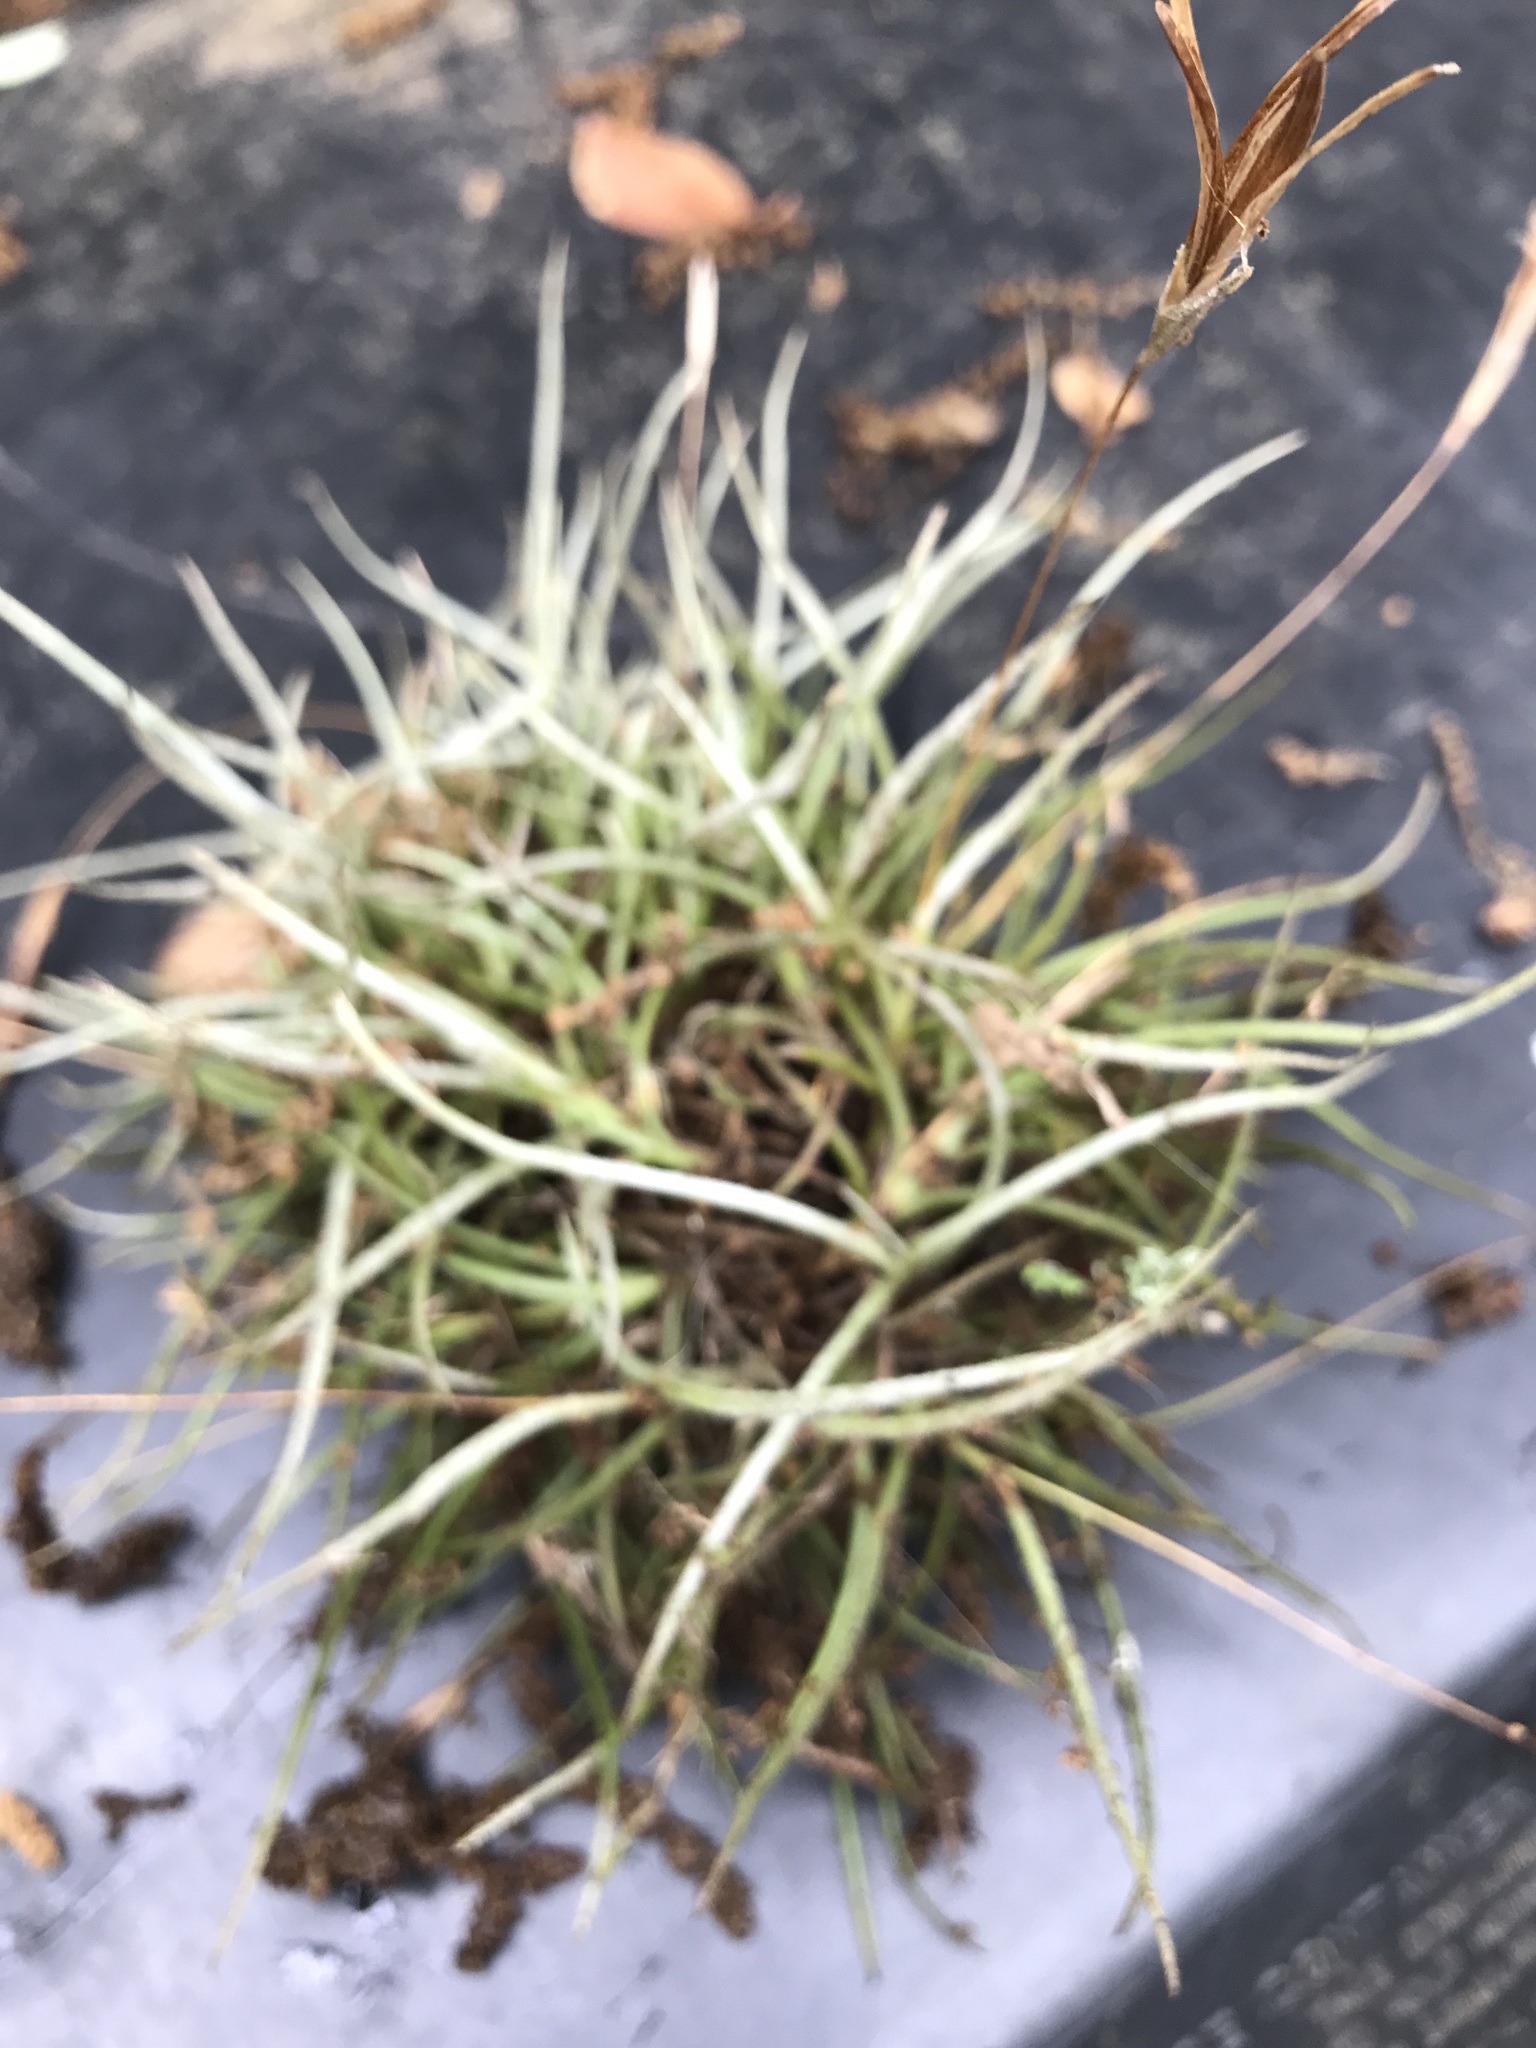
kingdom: Plantae
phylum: Tracheophyta
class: Liliopsida
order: Poales
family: Bromeliaceae
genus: Tillandsia
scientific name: Tillandsia recurvata
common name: Small ballmoss
